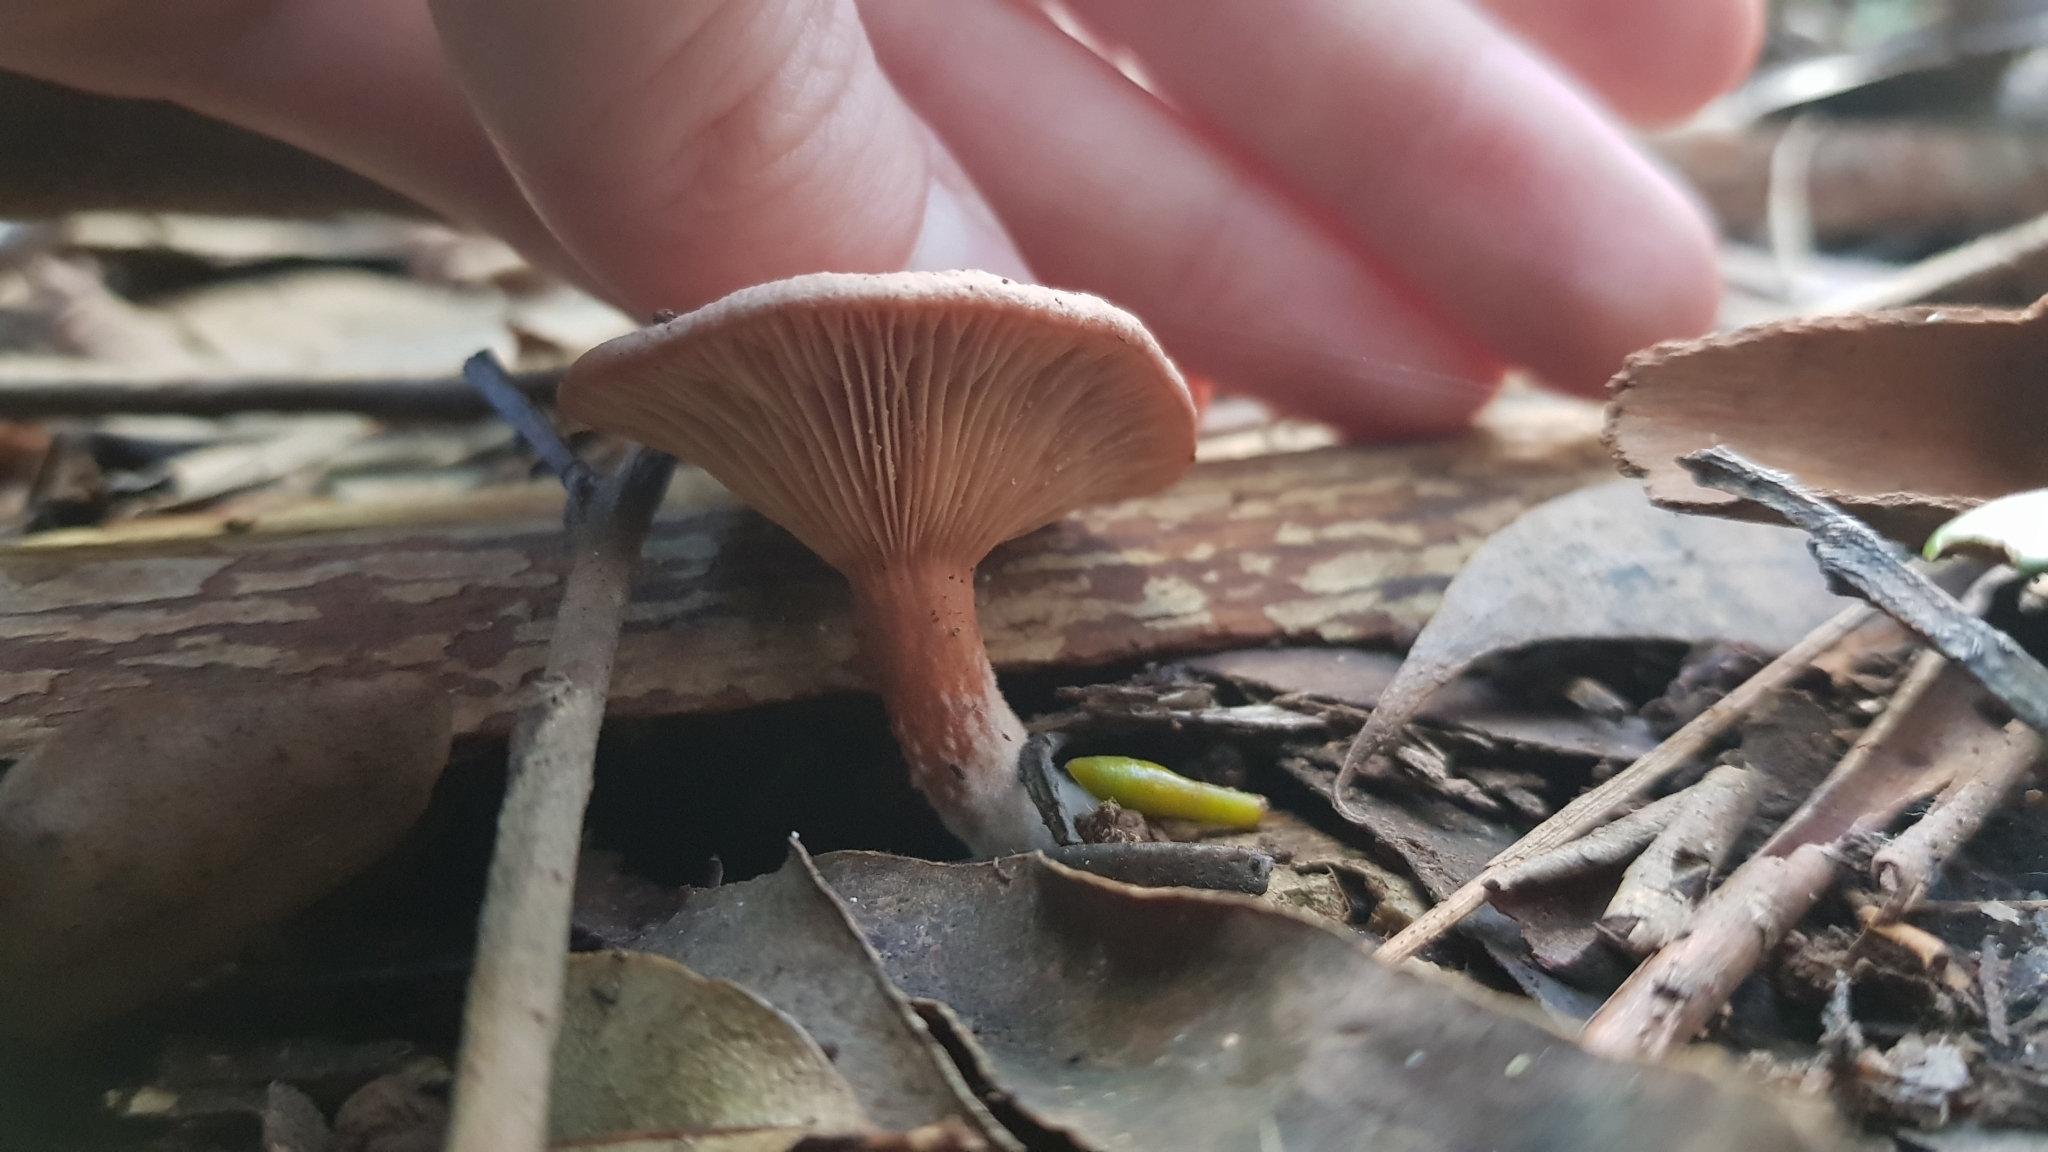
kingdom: Fungi
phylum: Basidiomycota
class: Agaricomycetes
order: Russulales
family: Russulaceae
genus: Lactarius
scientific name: Lactarius eucalypti
